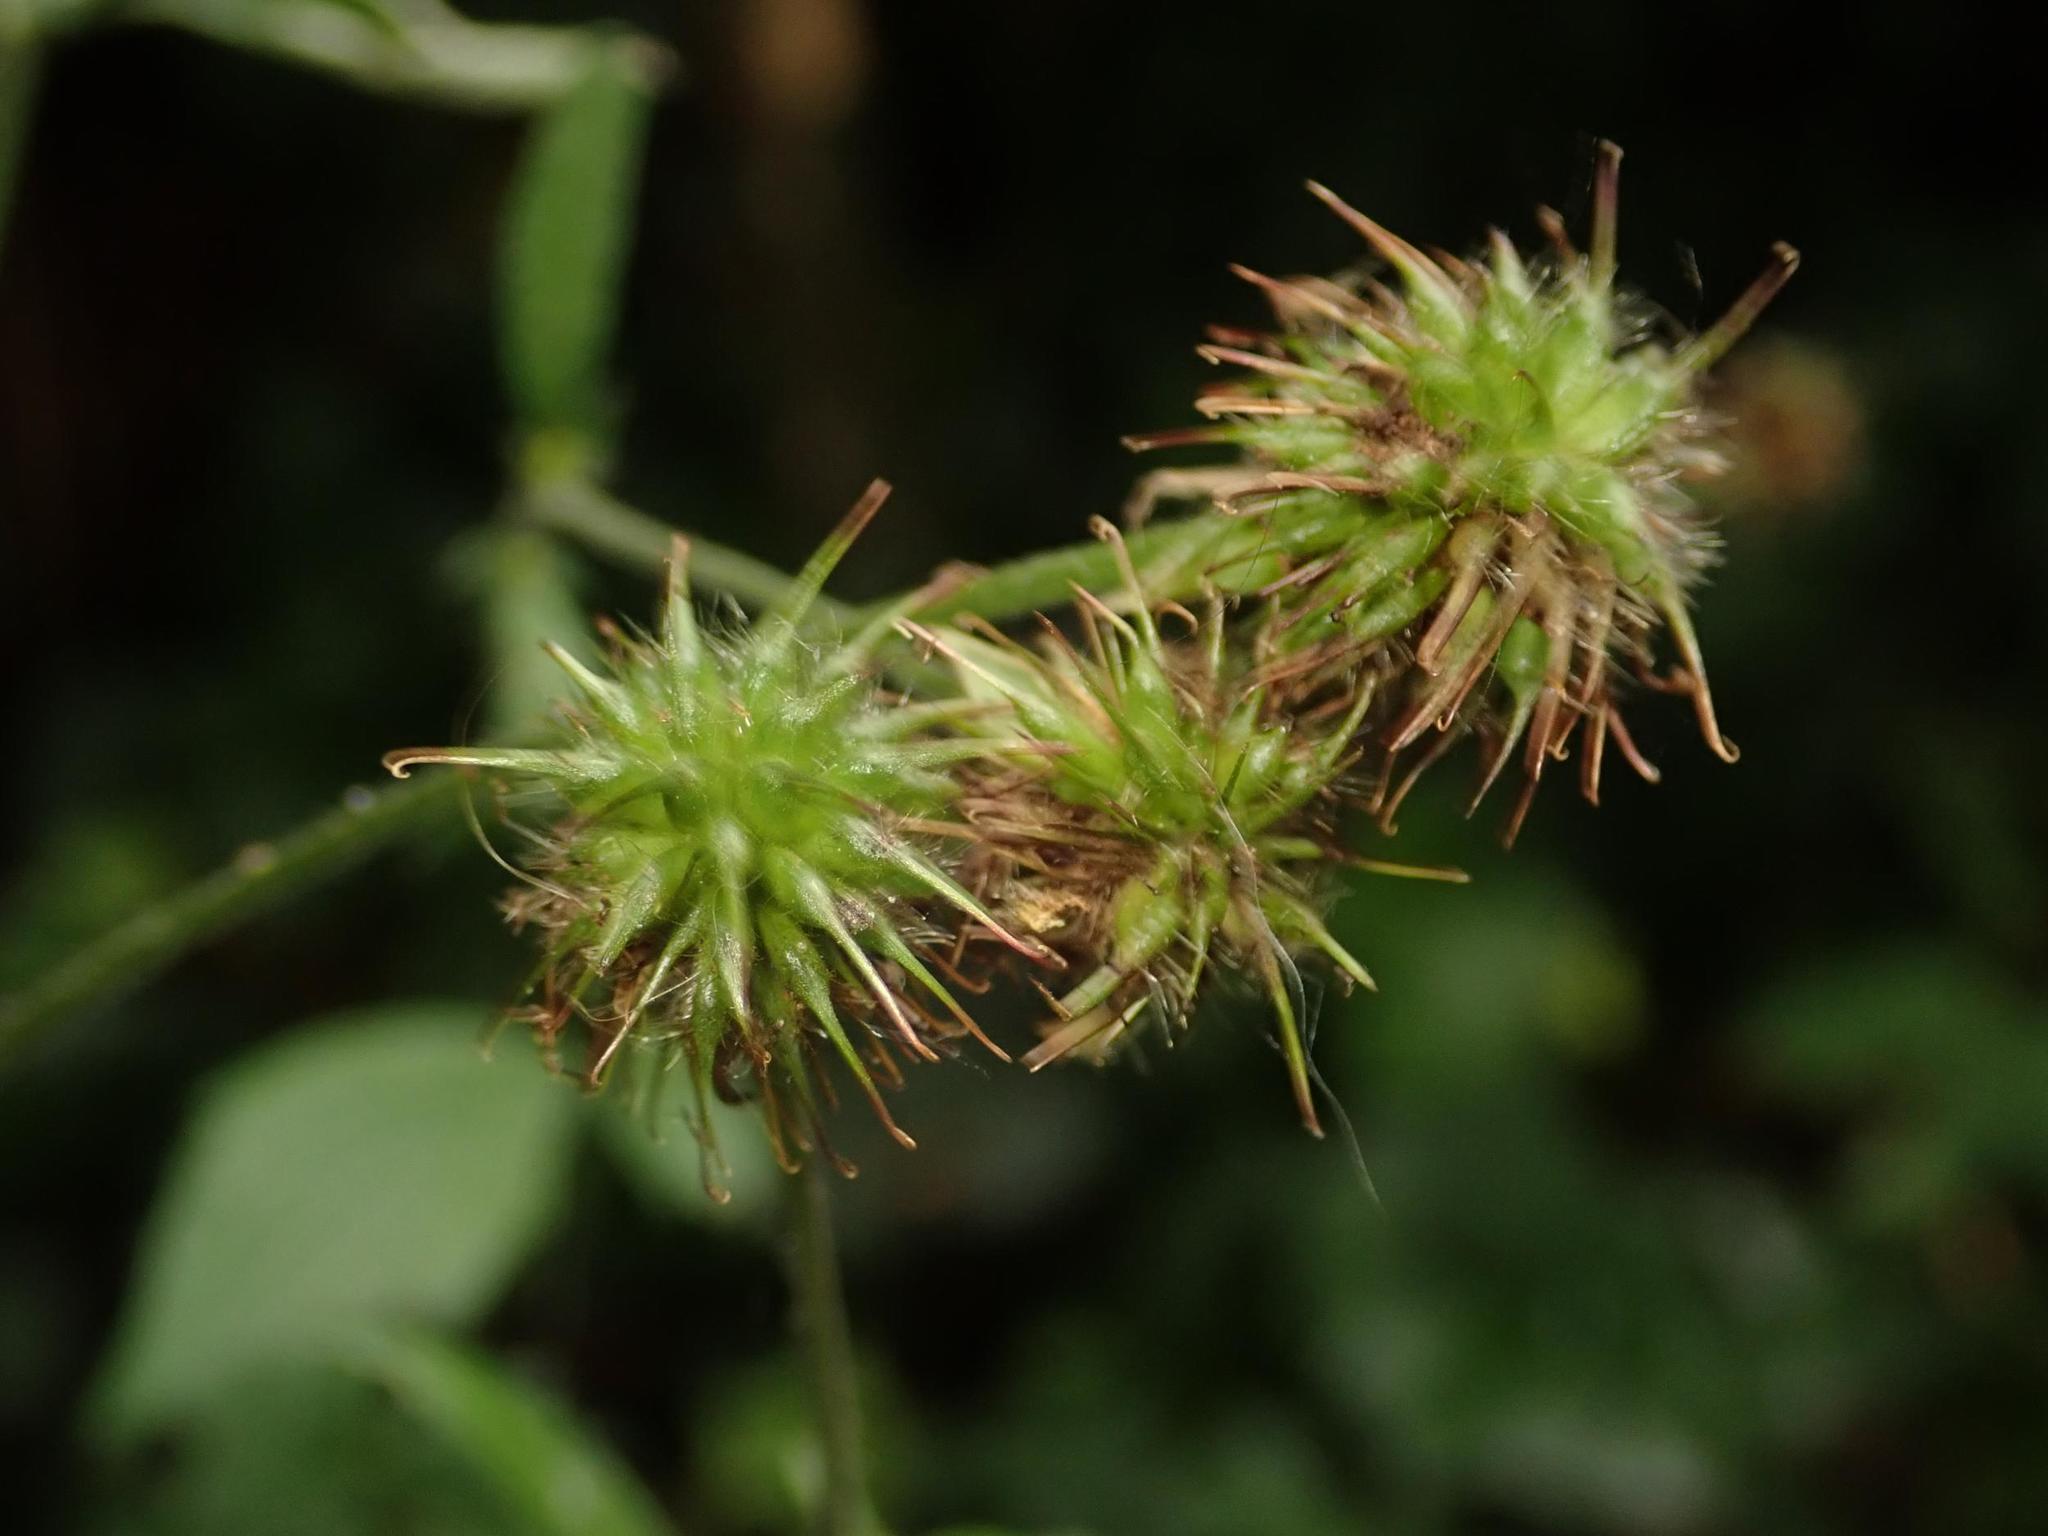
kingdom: Plantae
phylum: Tracheophyta
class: Magnoliopsida
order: Rosales
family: Rosaceae
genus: Geum
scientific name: Geum urbanum
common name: Wood avens
